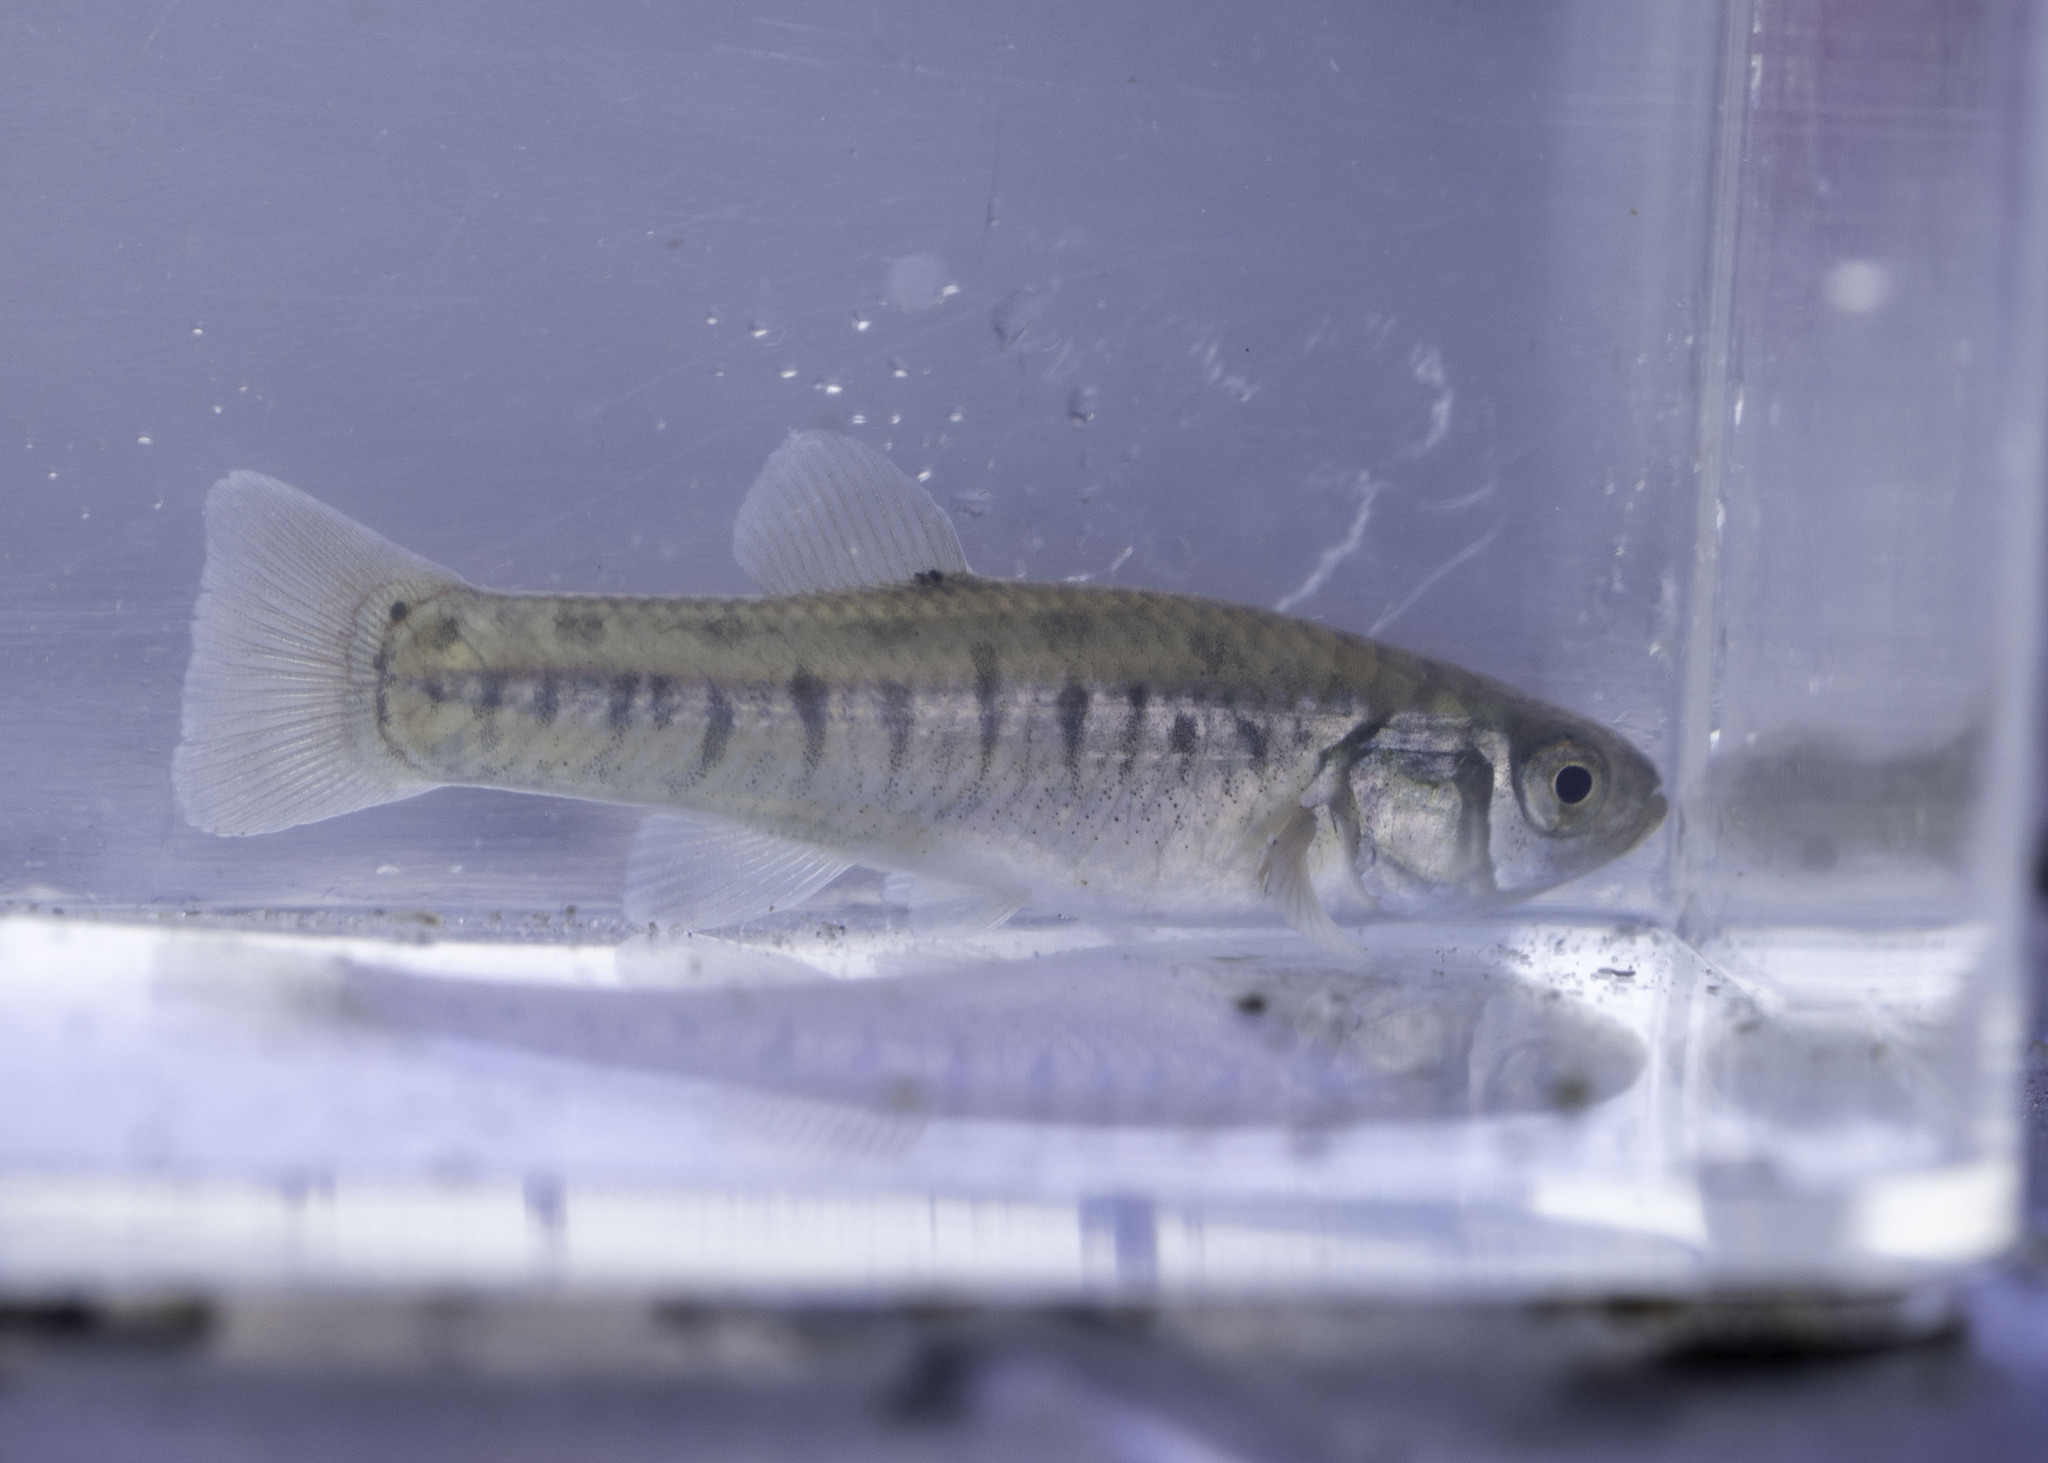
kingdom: Animalia
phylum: Chordata
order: Cyprinodontiformes
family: Fundulidae
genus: Fundulus
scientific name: Fundulus parvipinnis
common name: California killifish
